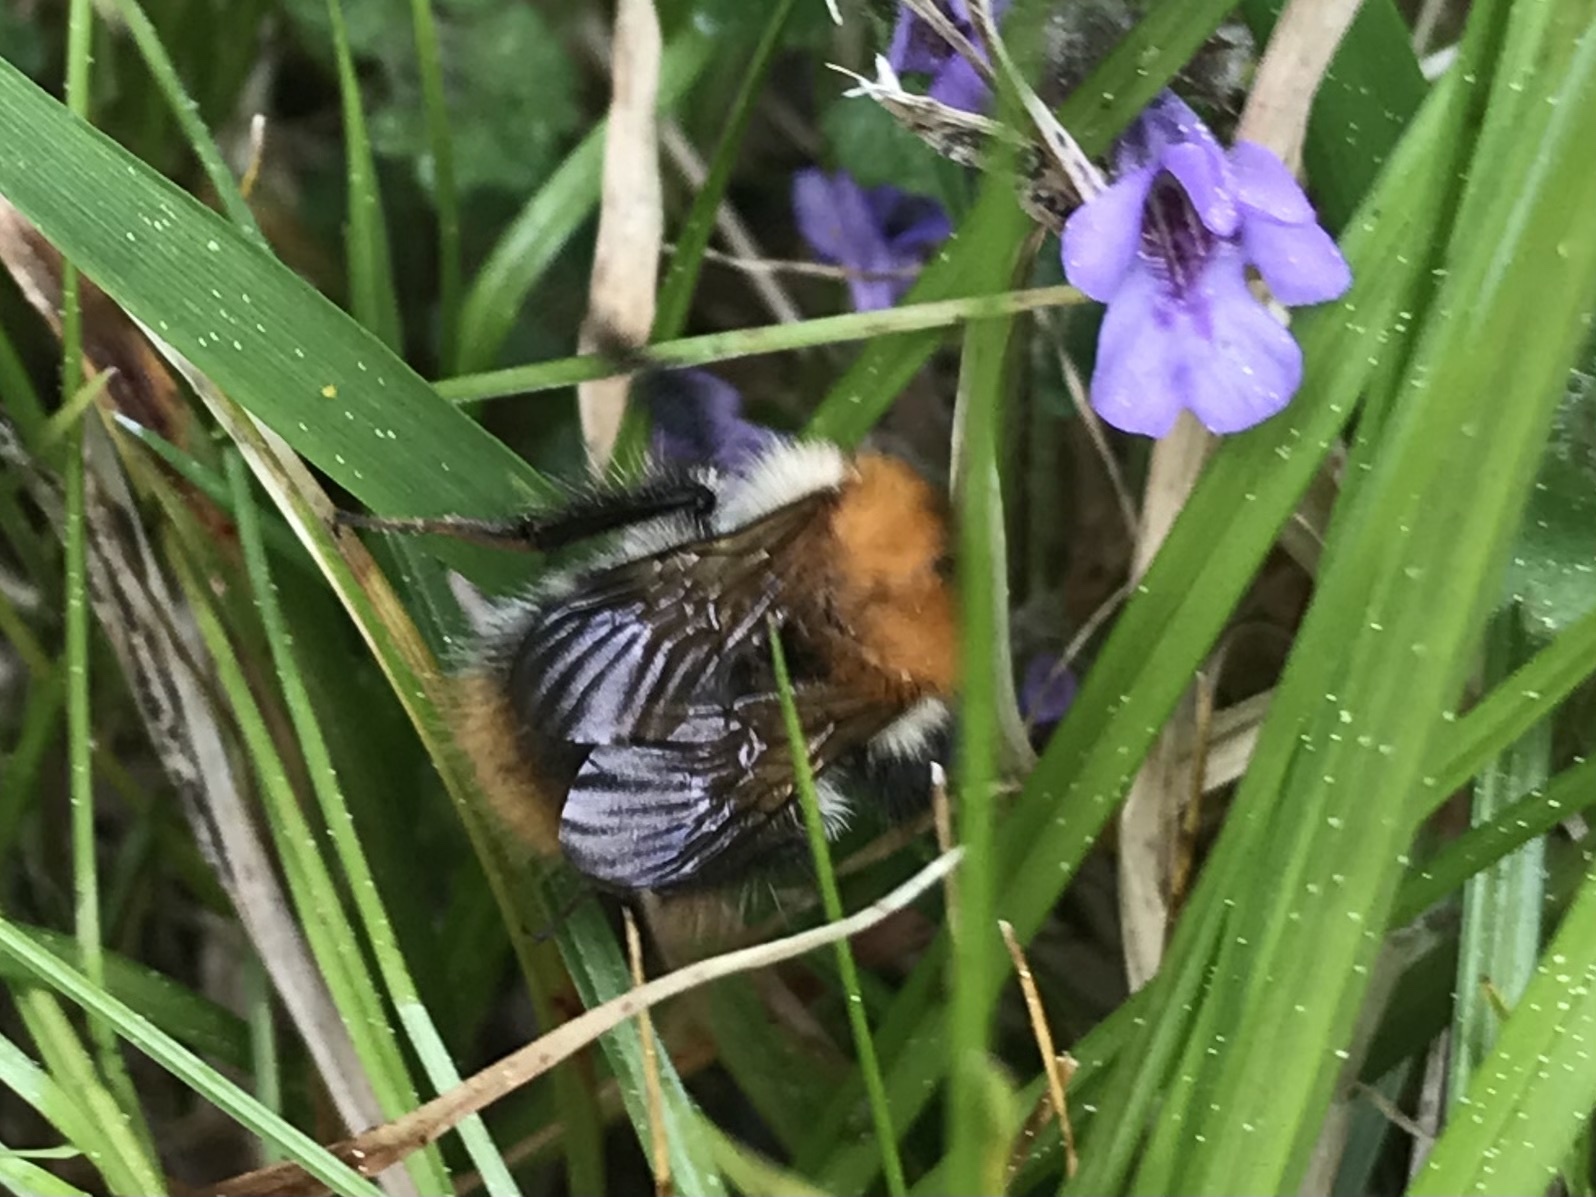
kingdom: Animalia
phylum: Arthropoda
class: Insecta
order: Hymenoptera
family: Apidae
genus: Bombus
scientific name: Bombus pascuorum
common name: Common carder bee
